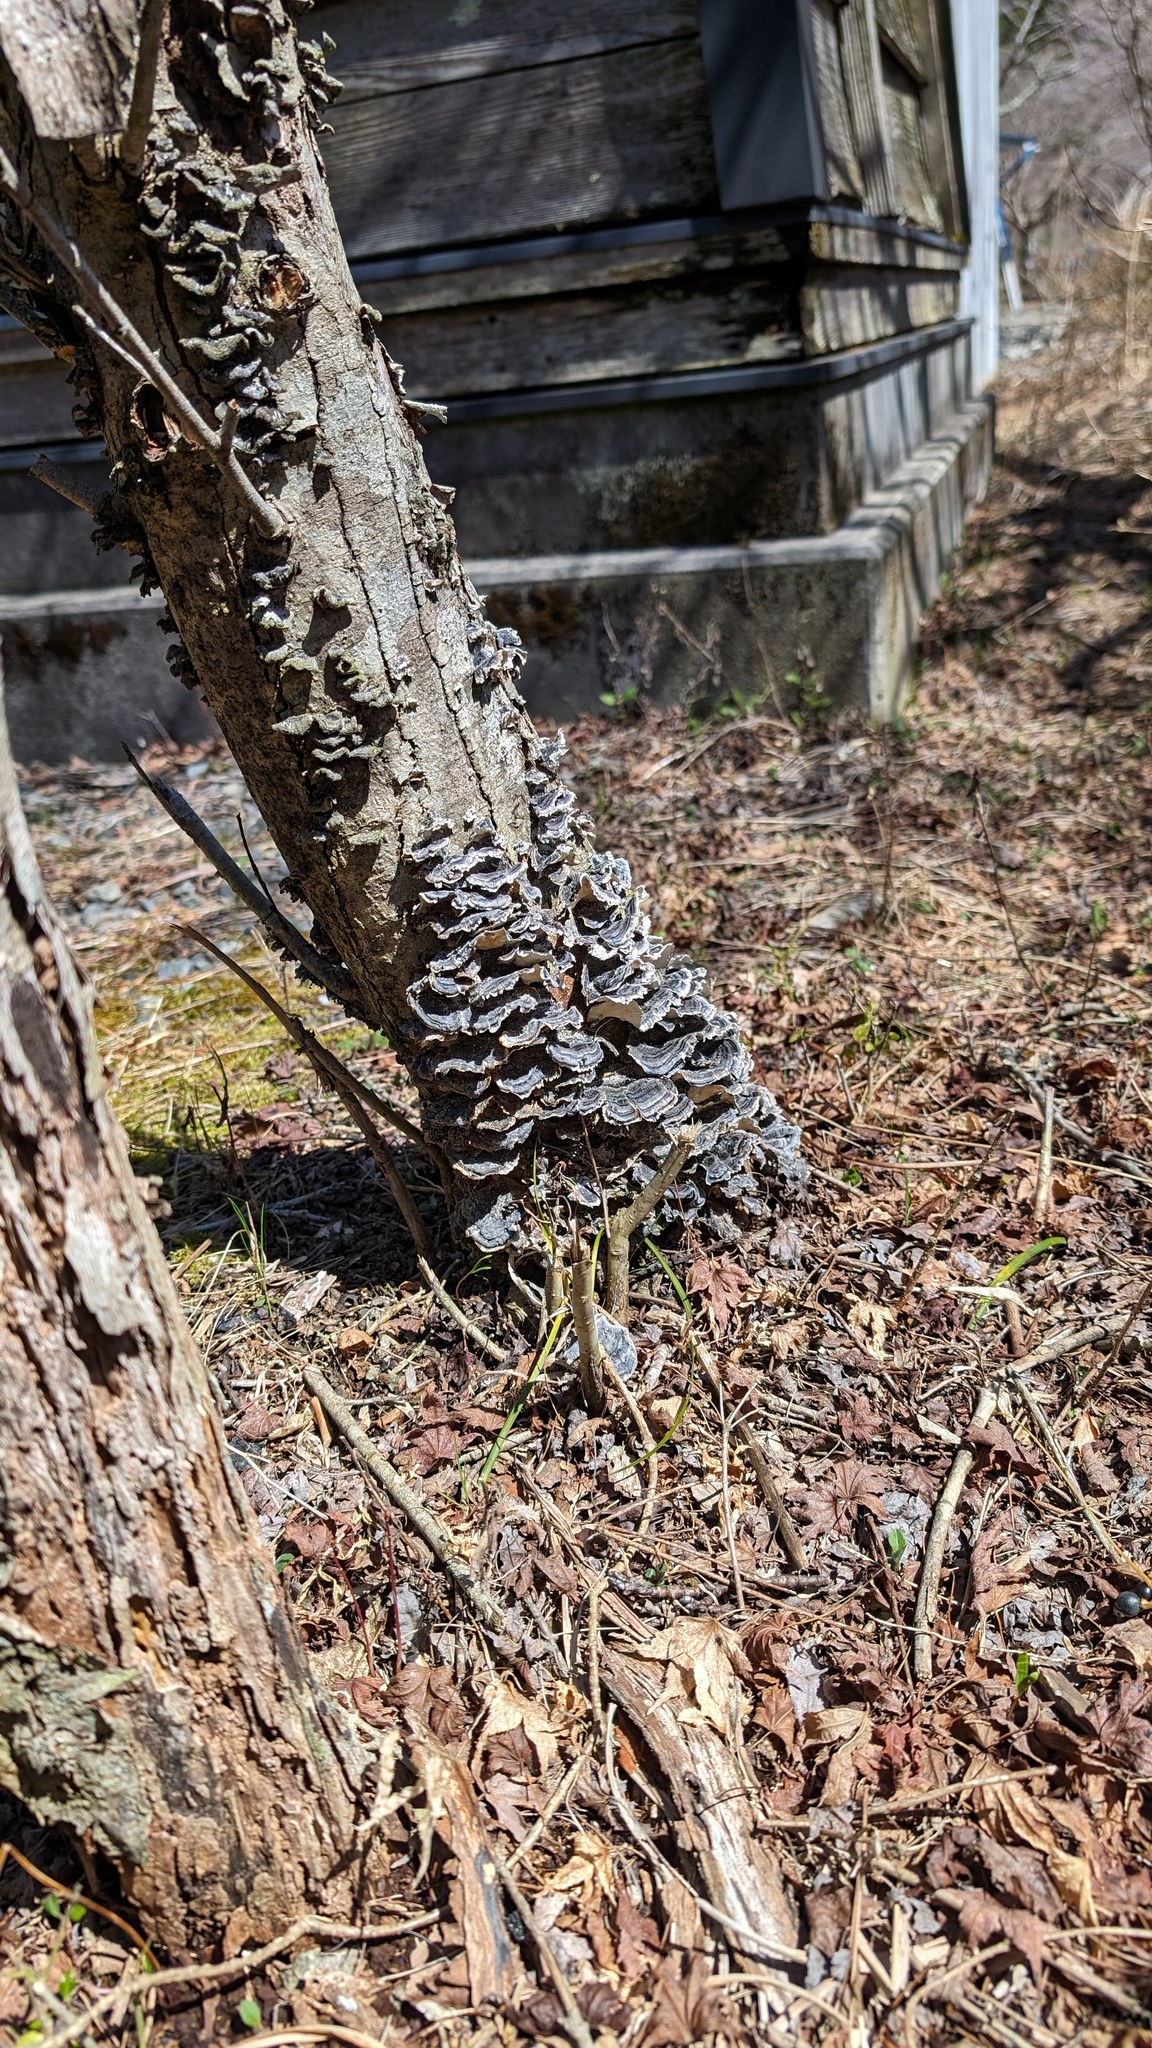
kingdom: Fungi
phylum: Basidiomycota
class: Agaricomycetes
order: Polyporales
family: Polyporaceae
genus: Trametes
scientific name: Trametes versicolor
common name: Turkeytail
